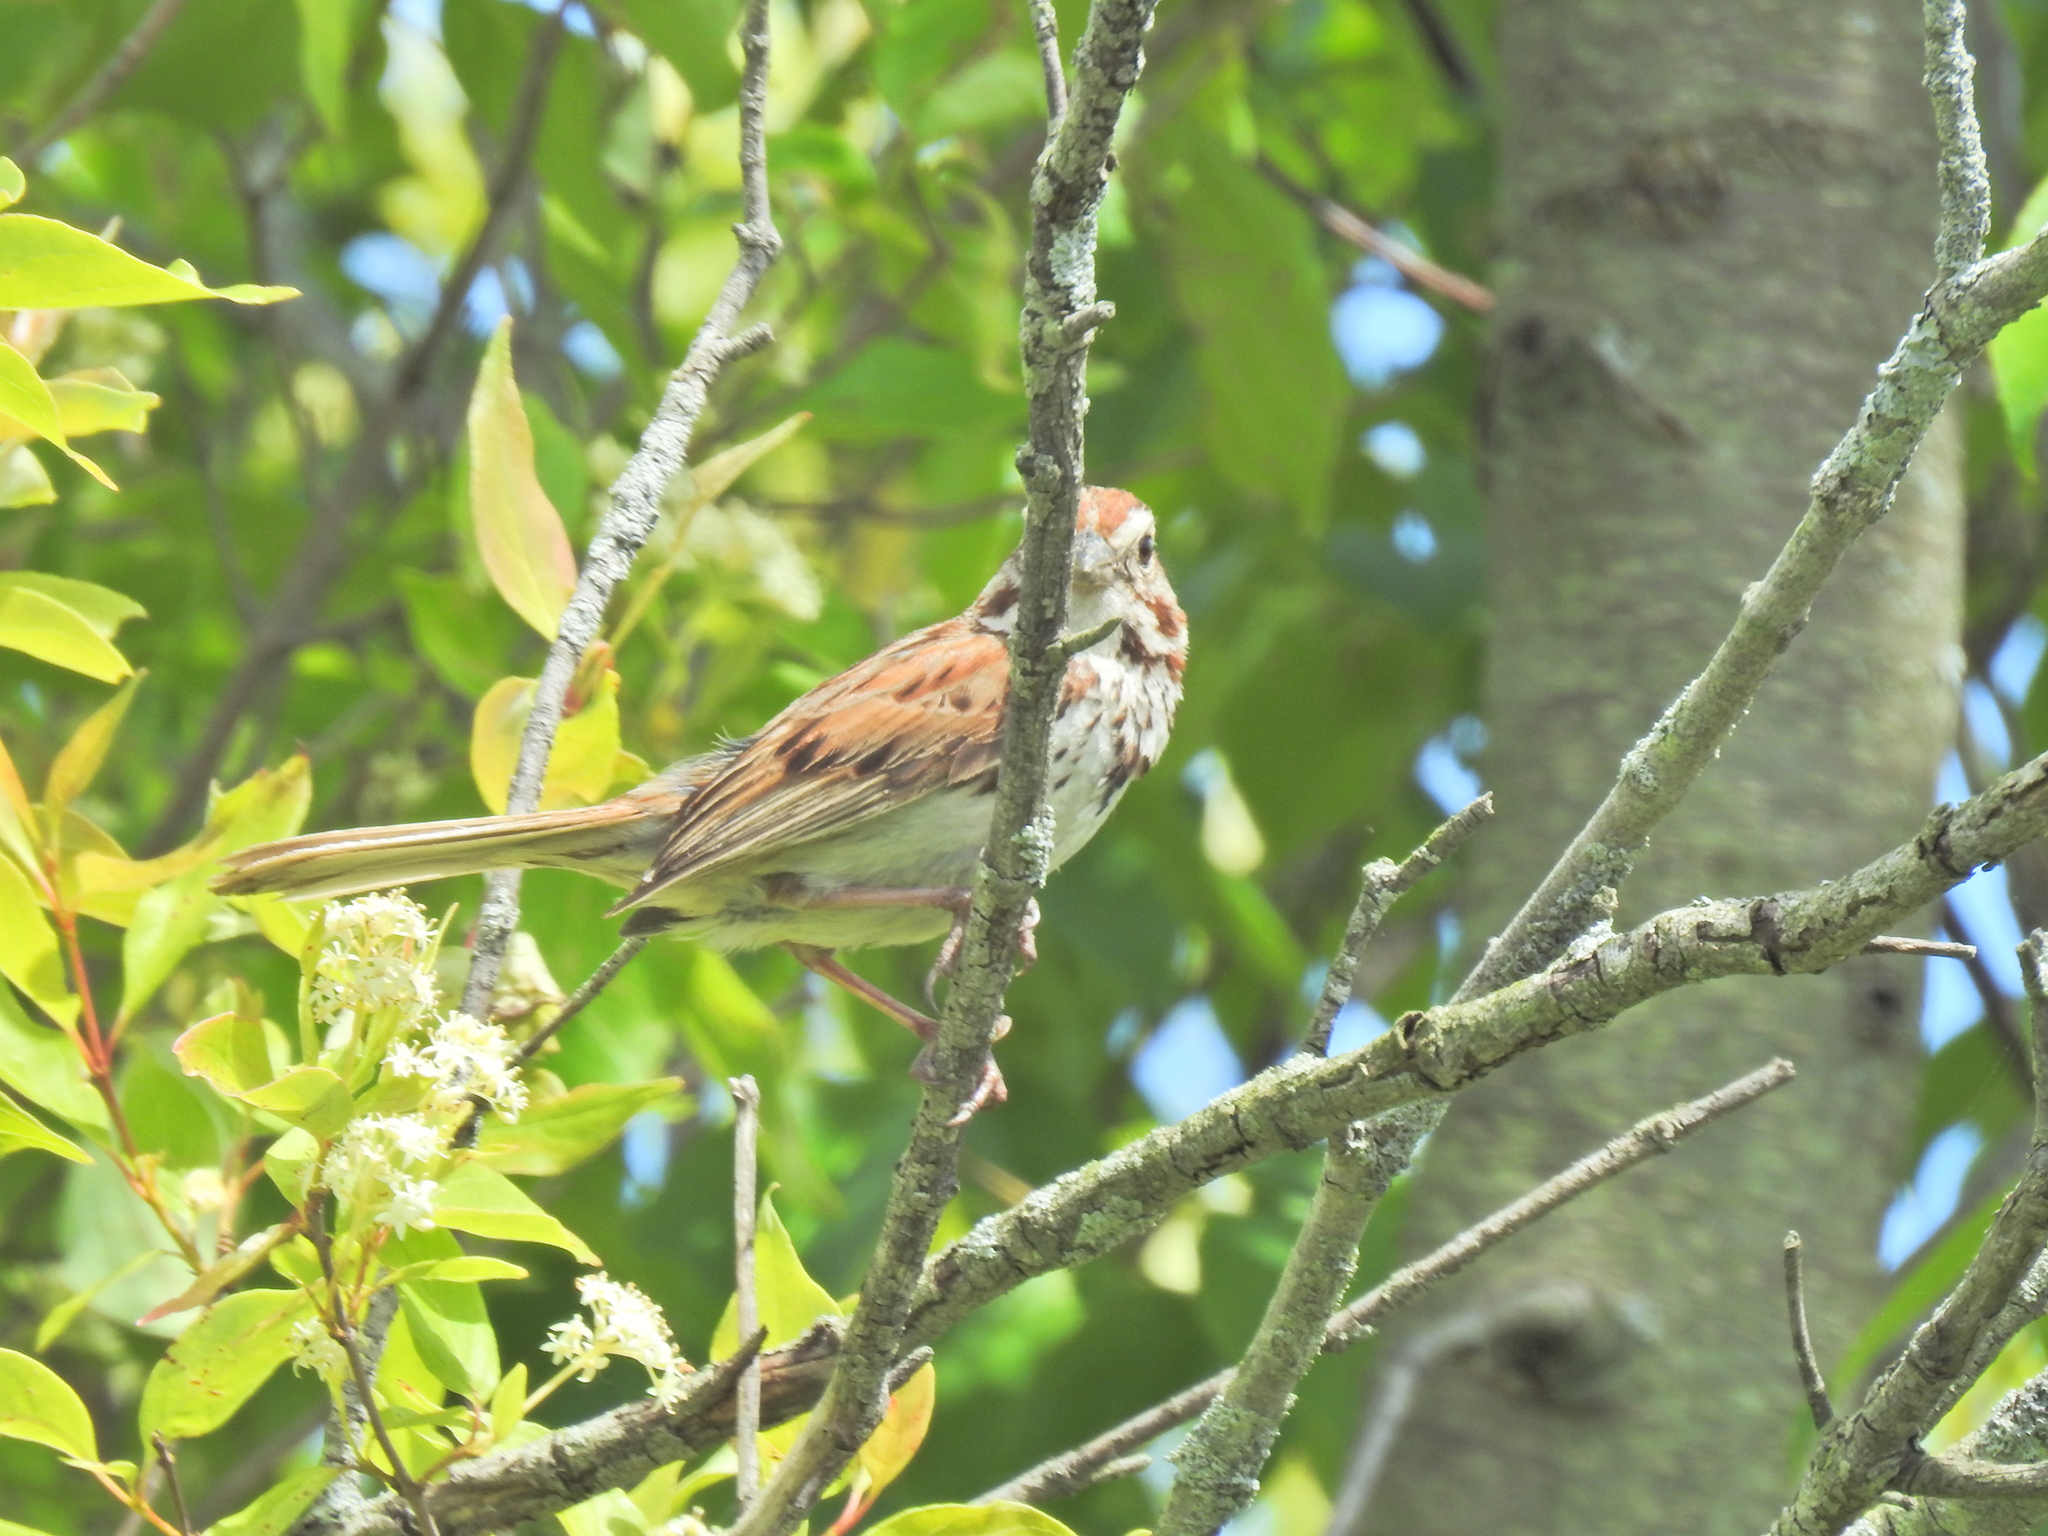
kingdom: Animalia
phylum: Chordata
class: Aves
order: Passeriformes
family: Passerellidae
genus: Melospiza
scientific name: Melospiza melodia
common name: Song sparrow
